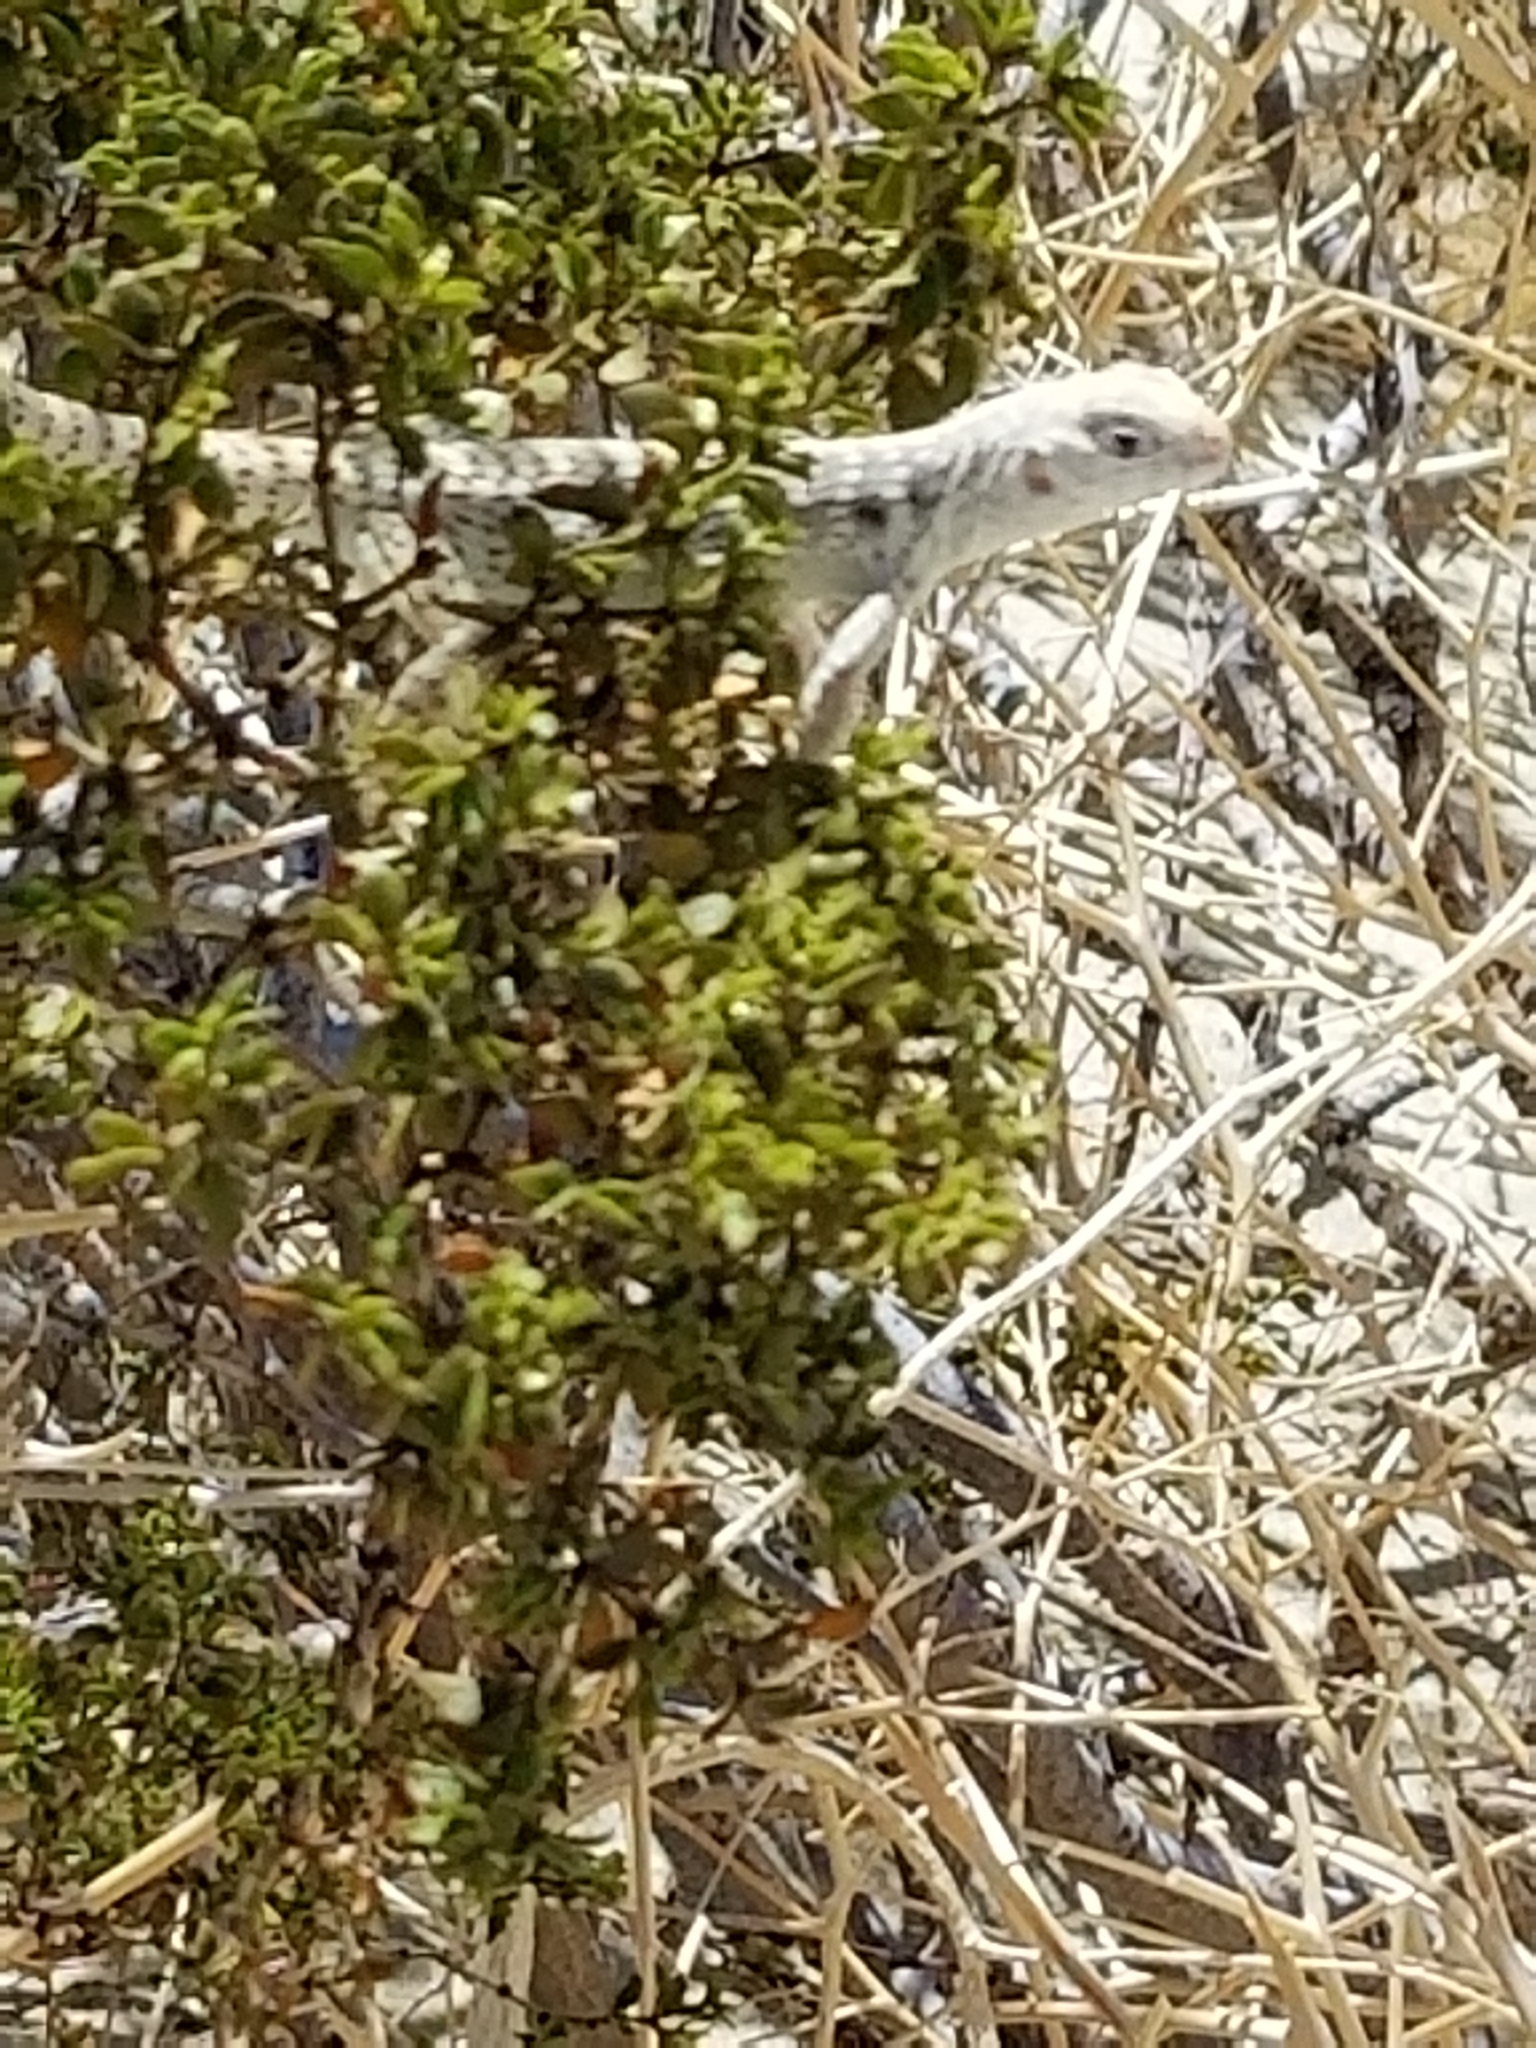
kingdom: Animalia
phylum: Chordata
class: Squamata
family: Iguanidae
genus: Dipsosaurus
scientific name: Dipsosaurus dorsalis
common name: Desert iguana
